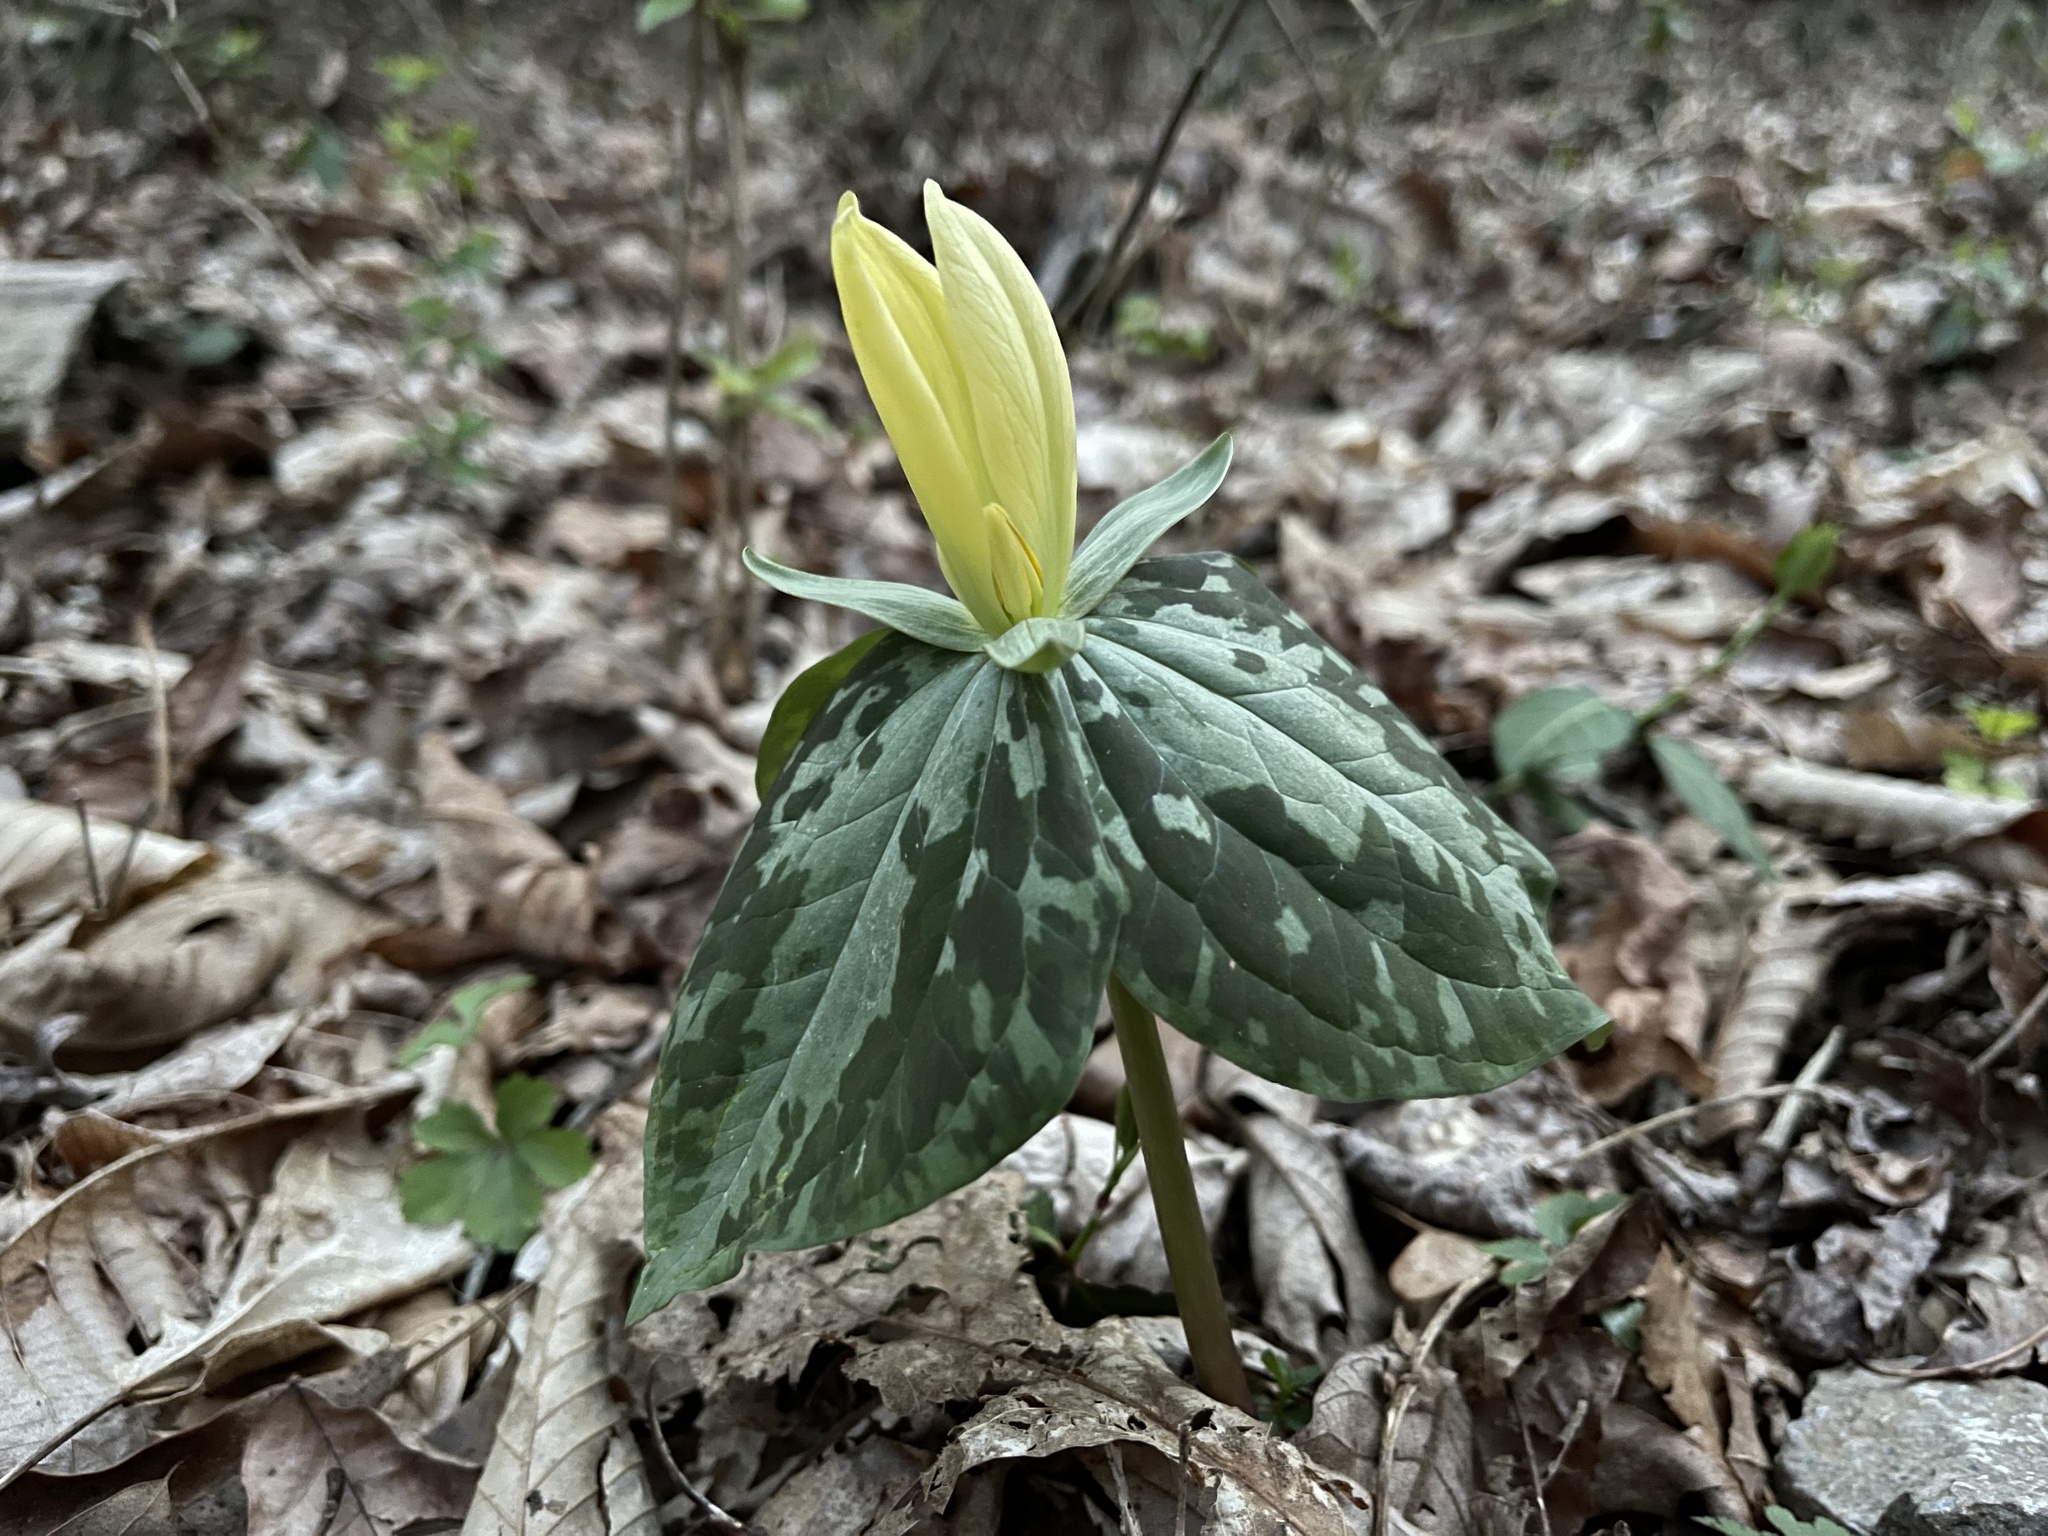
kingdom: Plantae
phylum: Tracheophyta
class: Liliopsida
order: Liliales
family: Melanthiaceae
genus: Trillium
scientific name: Trillium luteum
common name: Wax trillium
